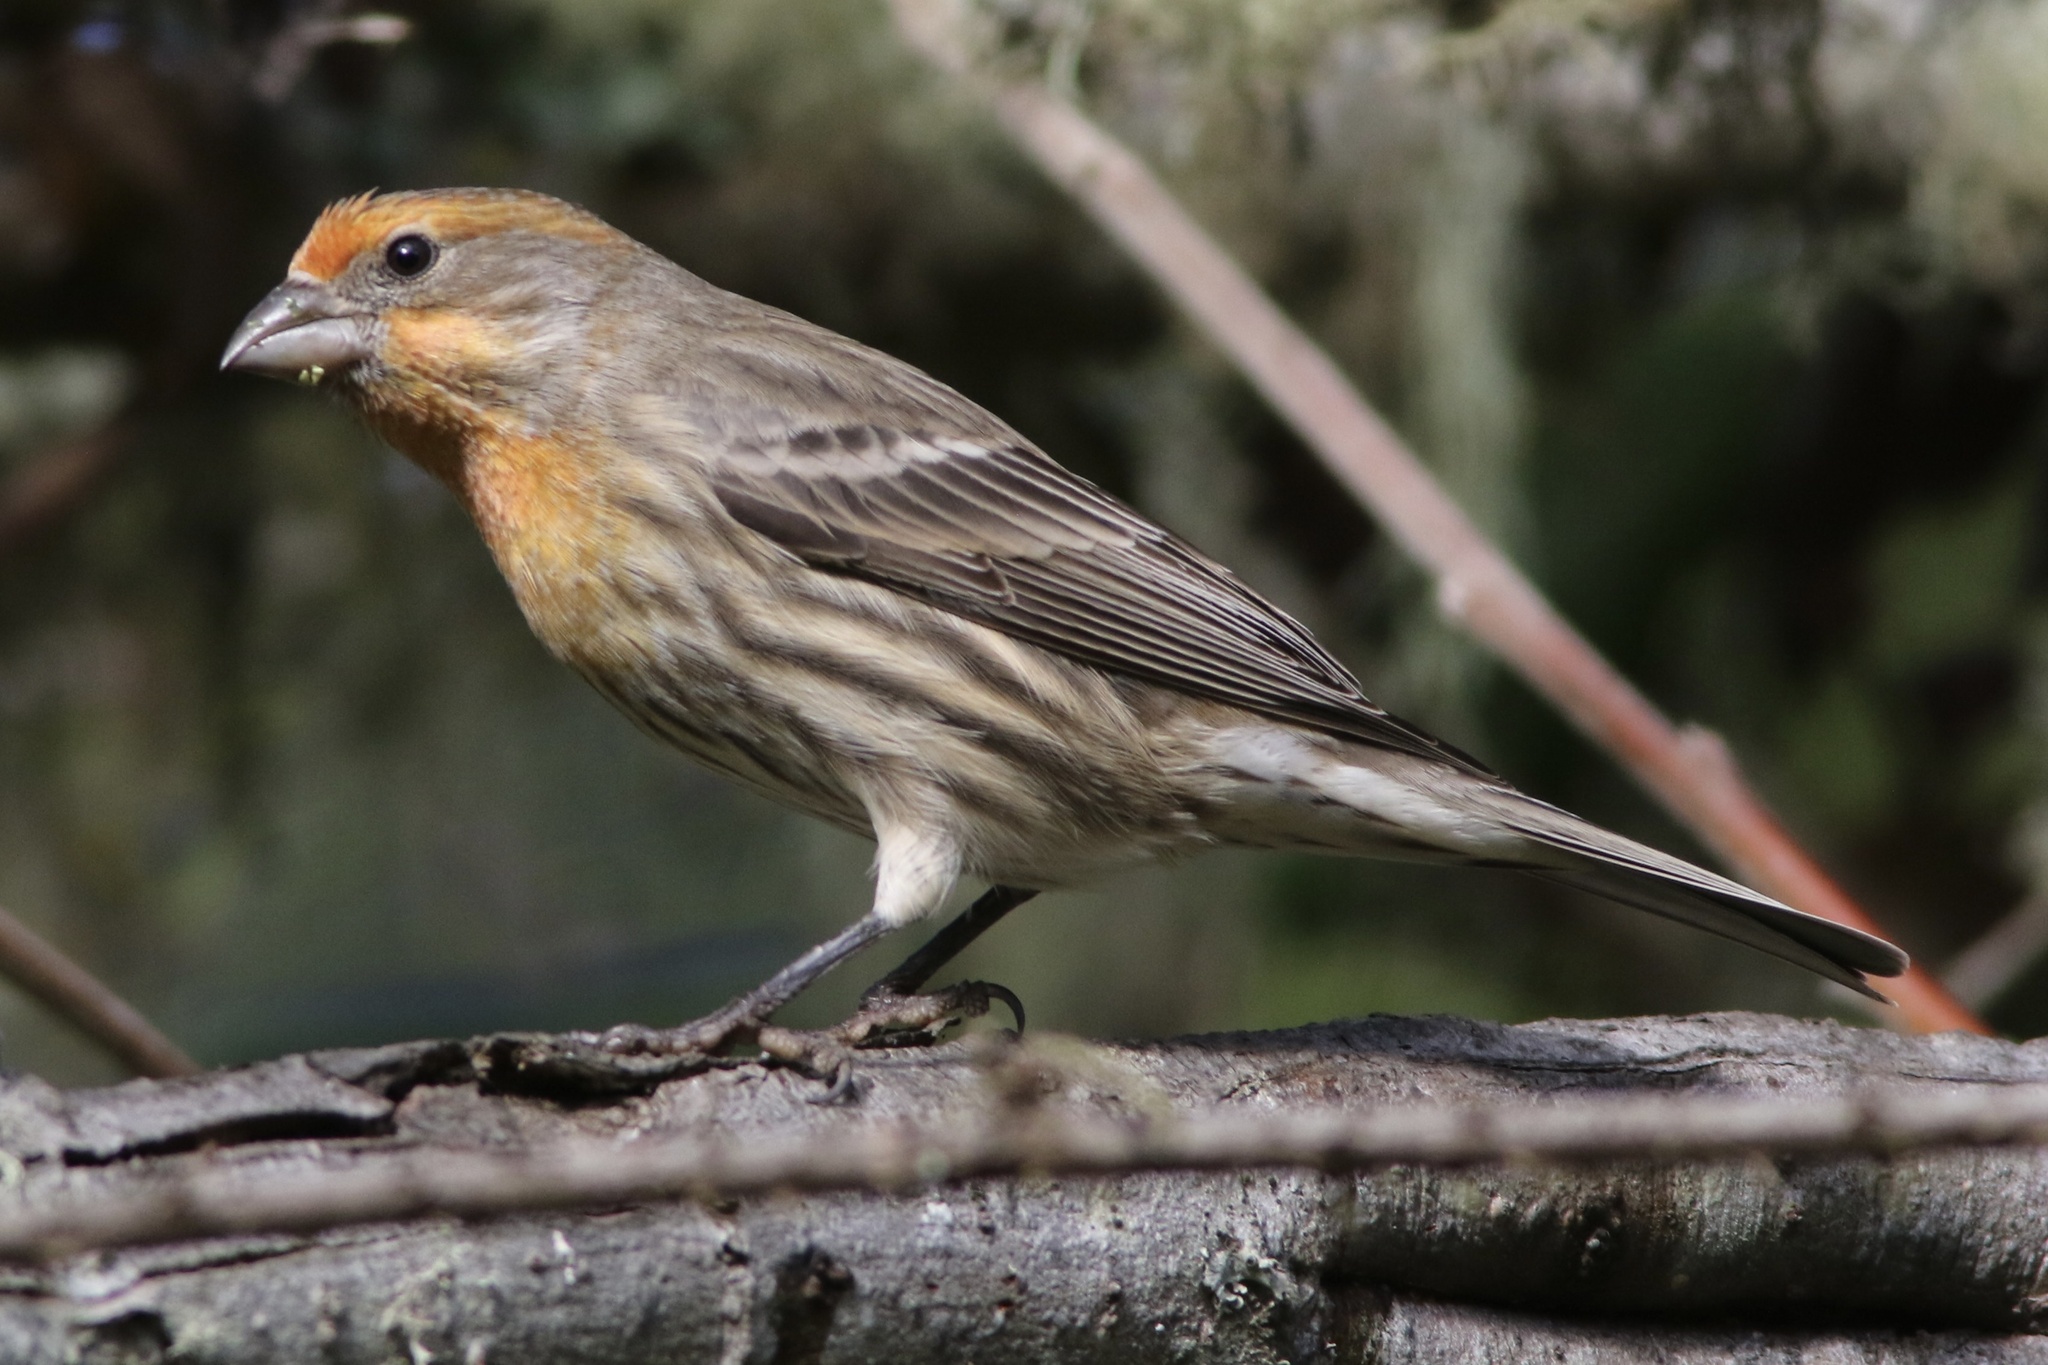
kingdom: Animalia
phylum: Chordata
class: Aves
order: Passeriformes
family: Fringillidae
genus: Haemorhous
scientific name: Haemorhous mexicanus
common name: House finch
